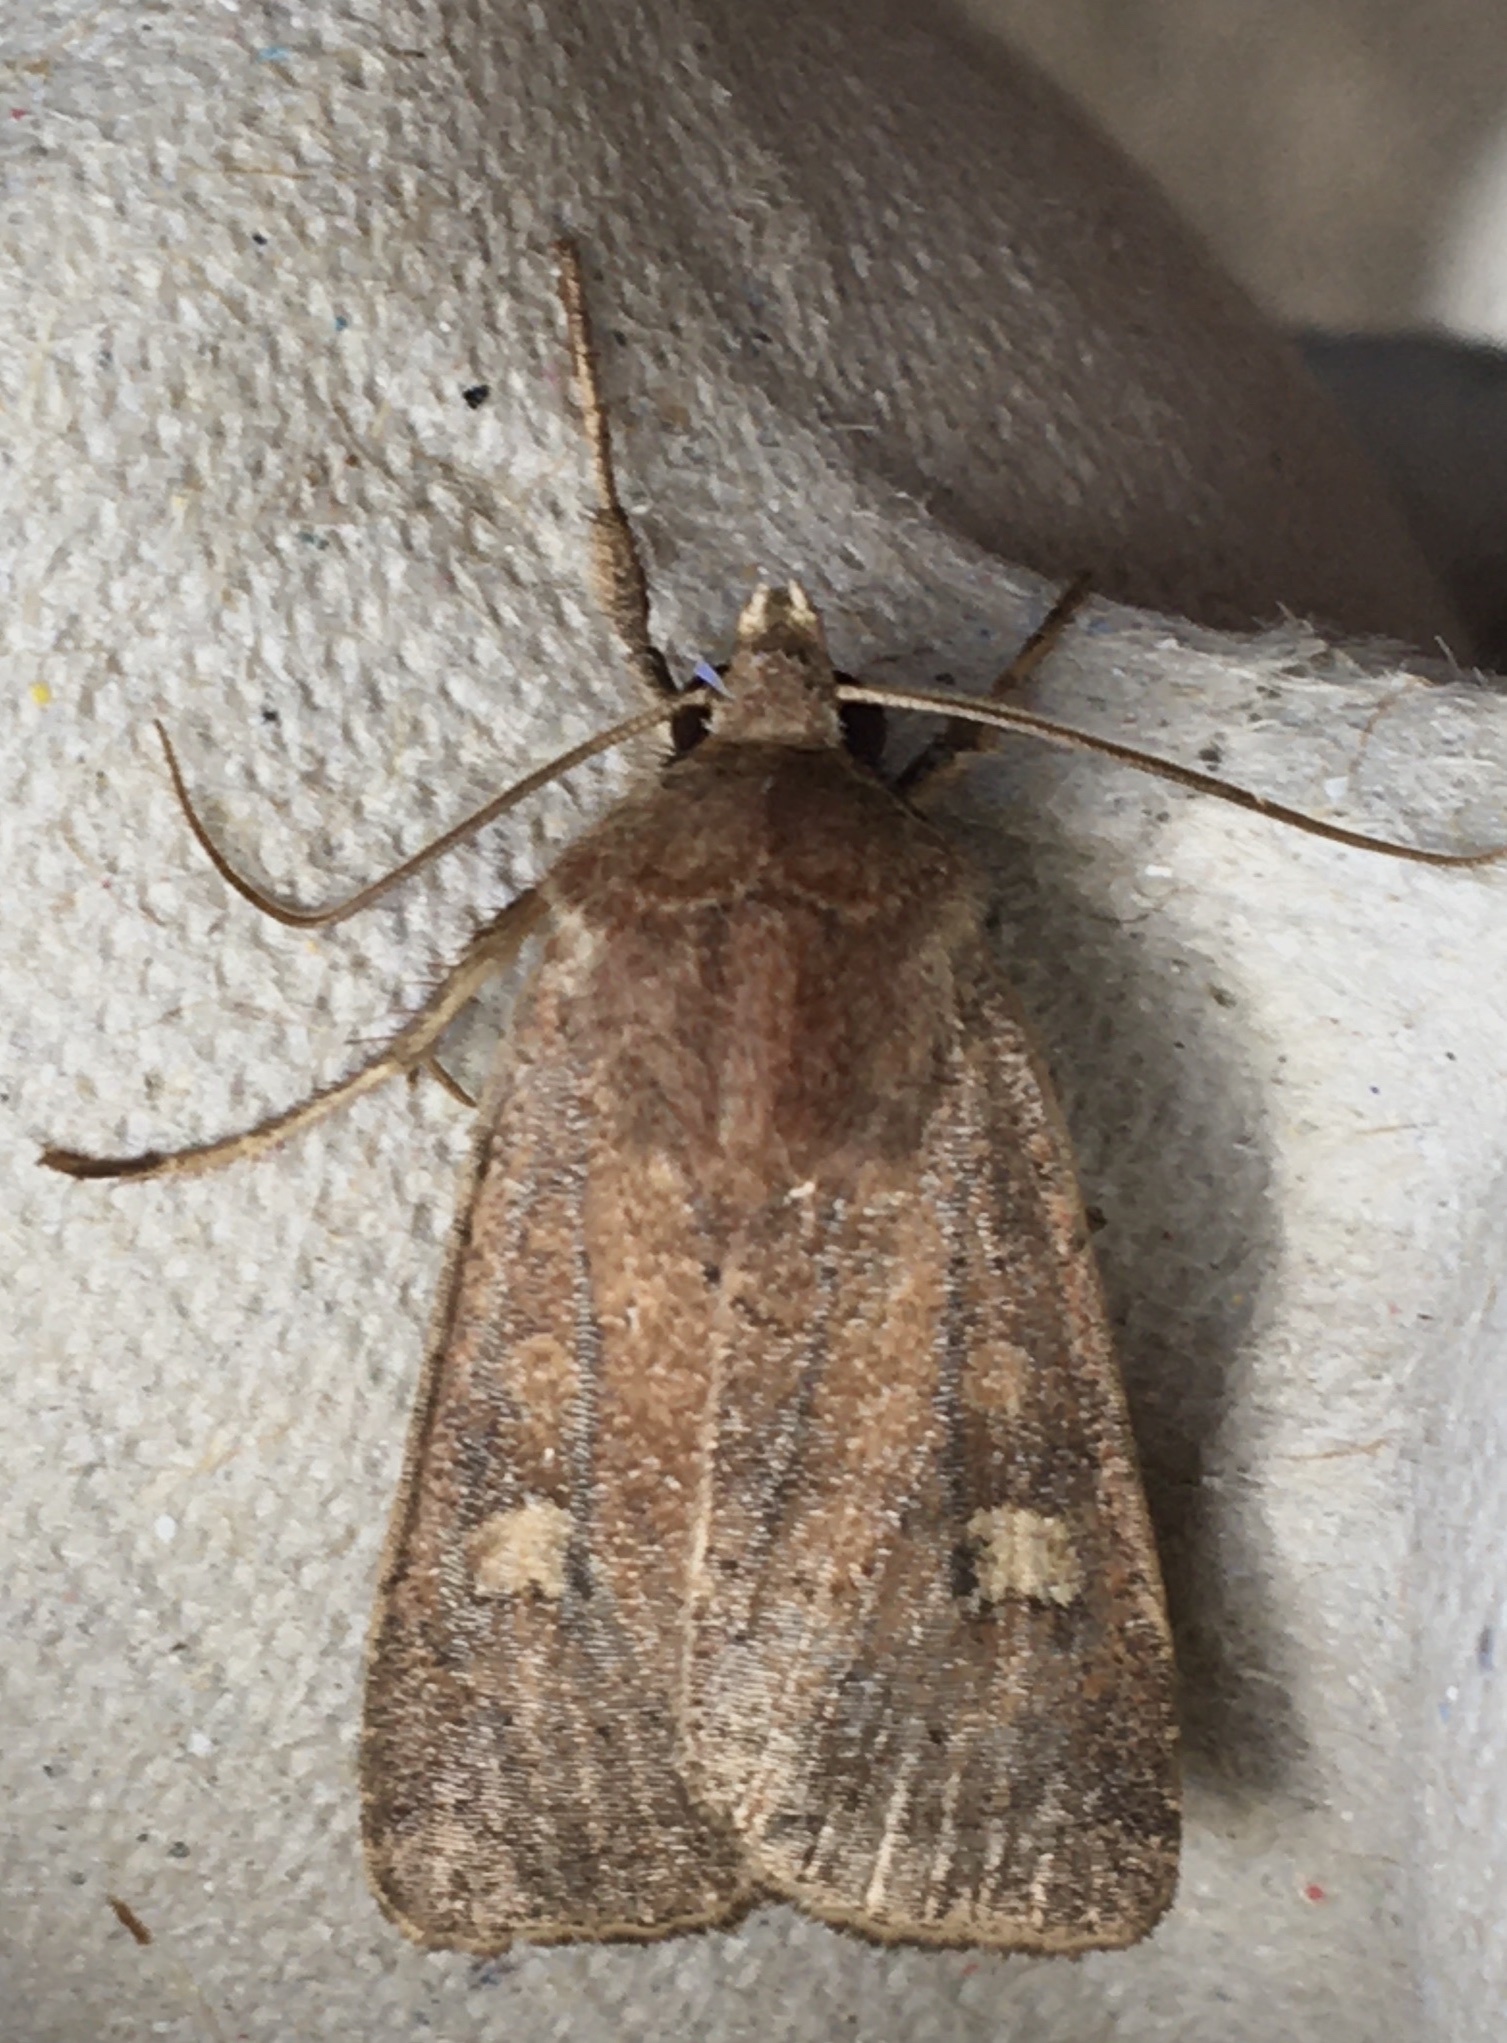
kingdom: Animalia
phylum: Arthropoda
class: Insecta
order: Lepidoptera
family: Noctuidae
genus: Xestia
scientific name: Xestia xanthographa
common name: Square-spot rustic
